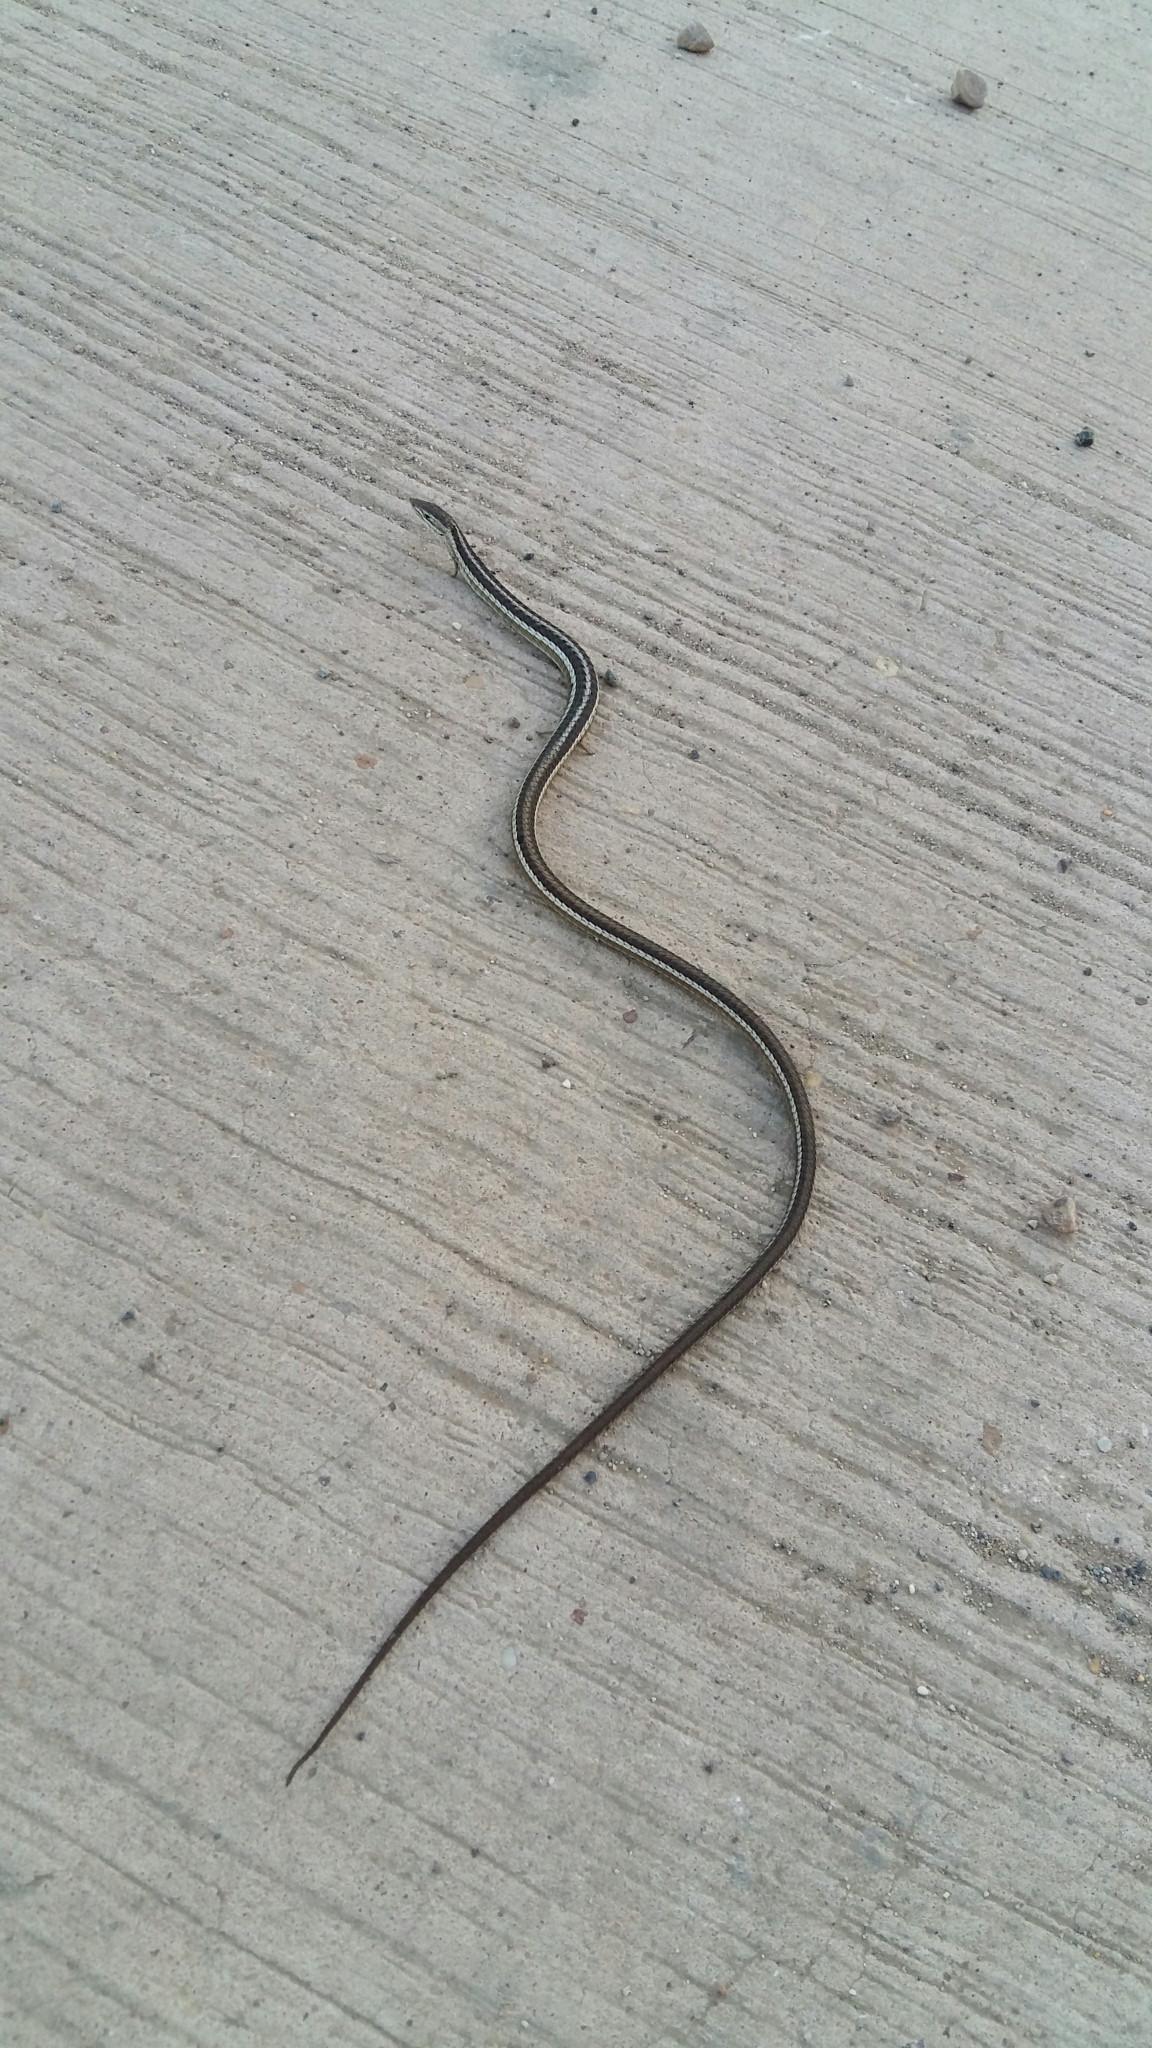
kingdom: Animalia
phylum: Chordata
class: Squamata
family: Cordylidae
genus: Chamaesaura
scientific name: Chamaesaura anguina
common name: Cape snake lizard
